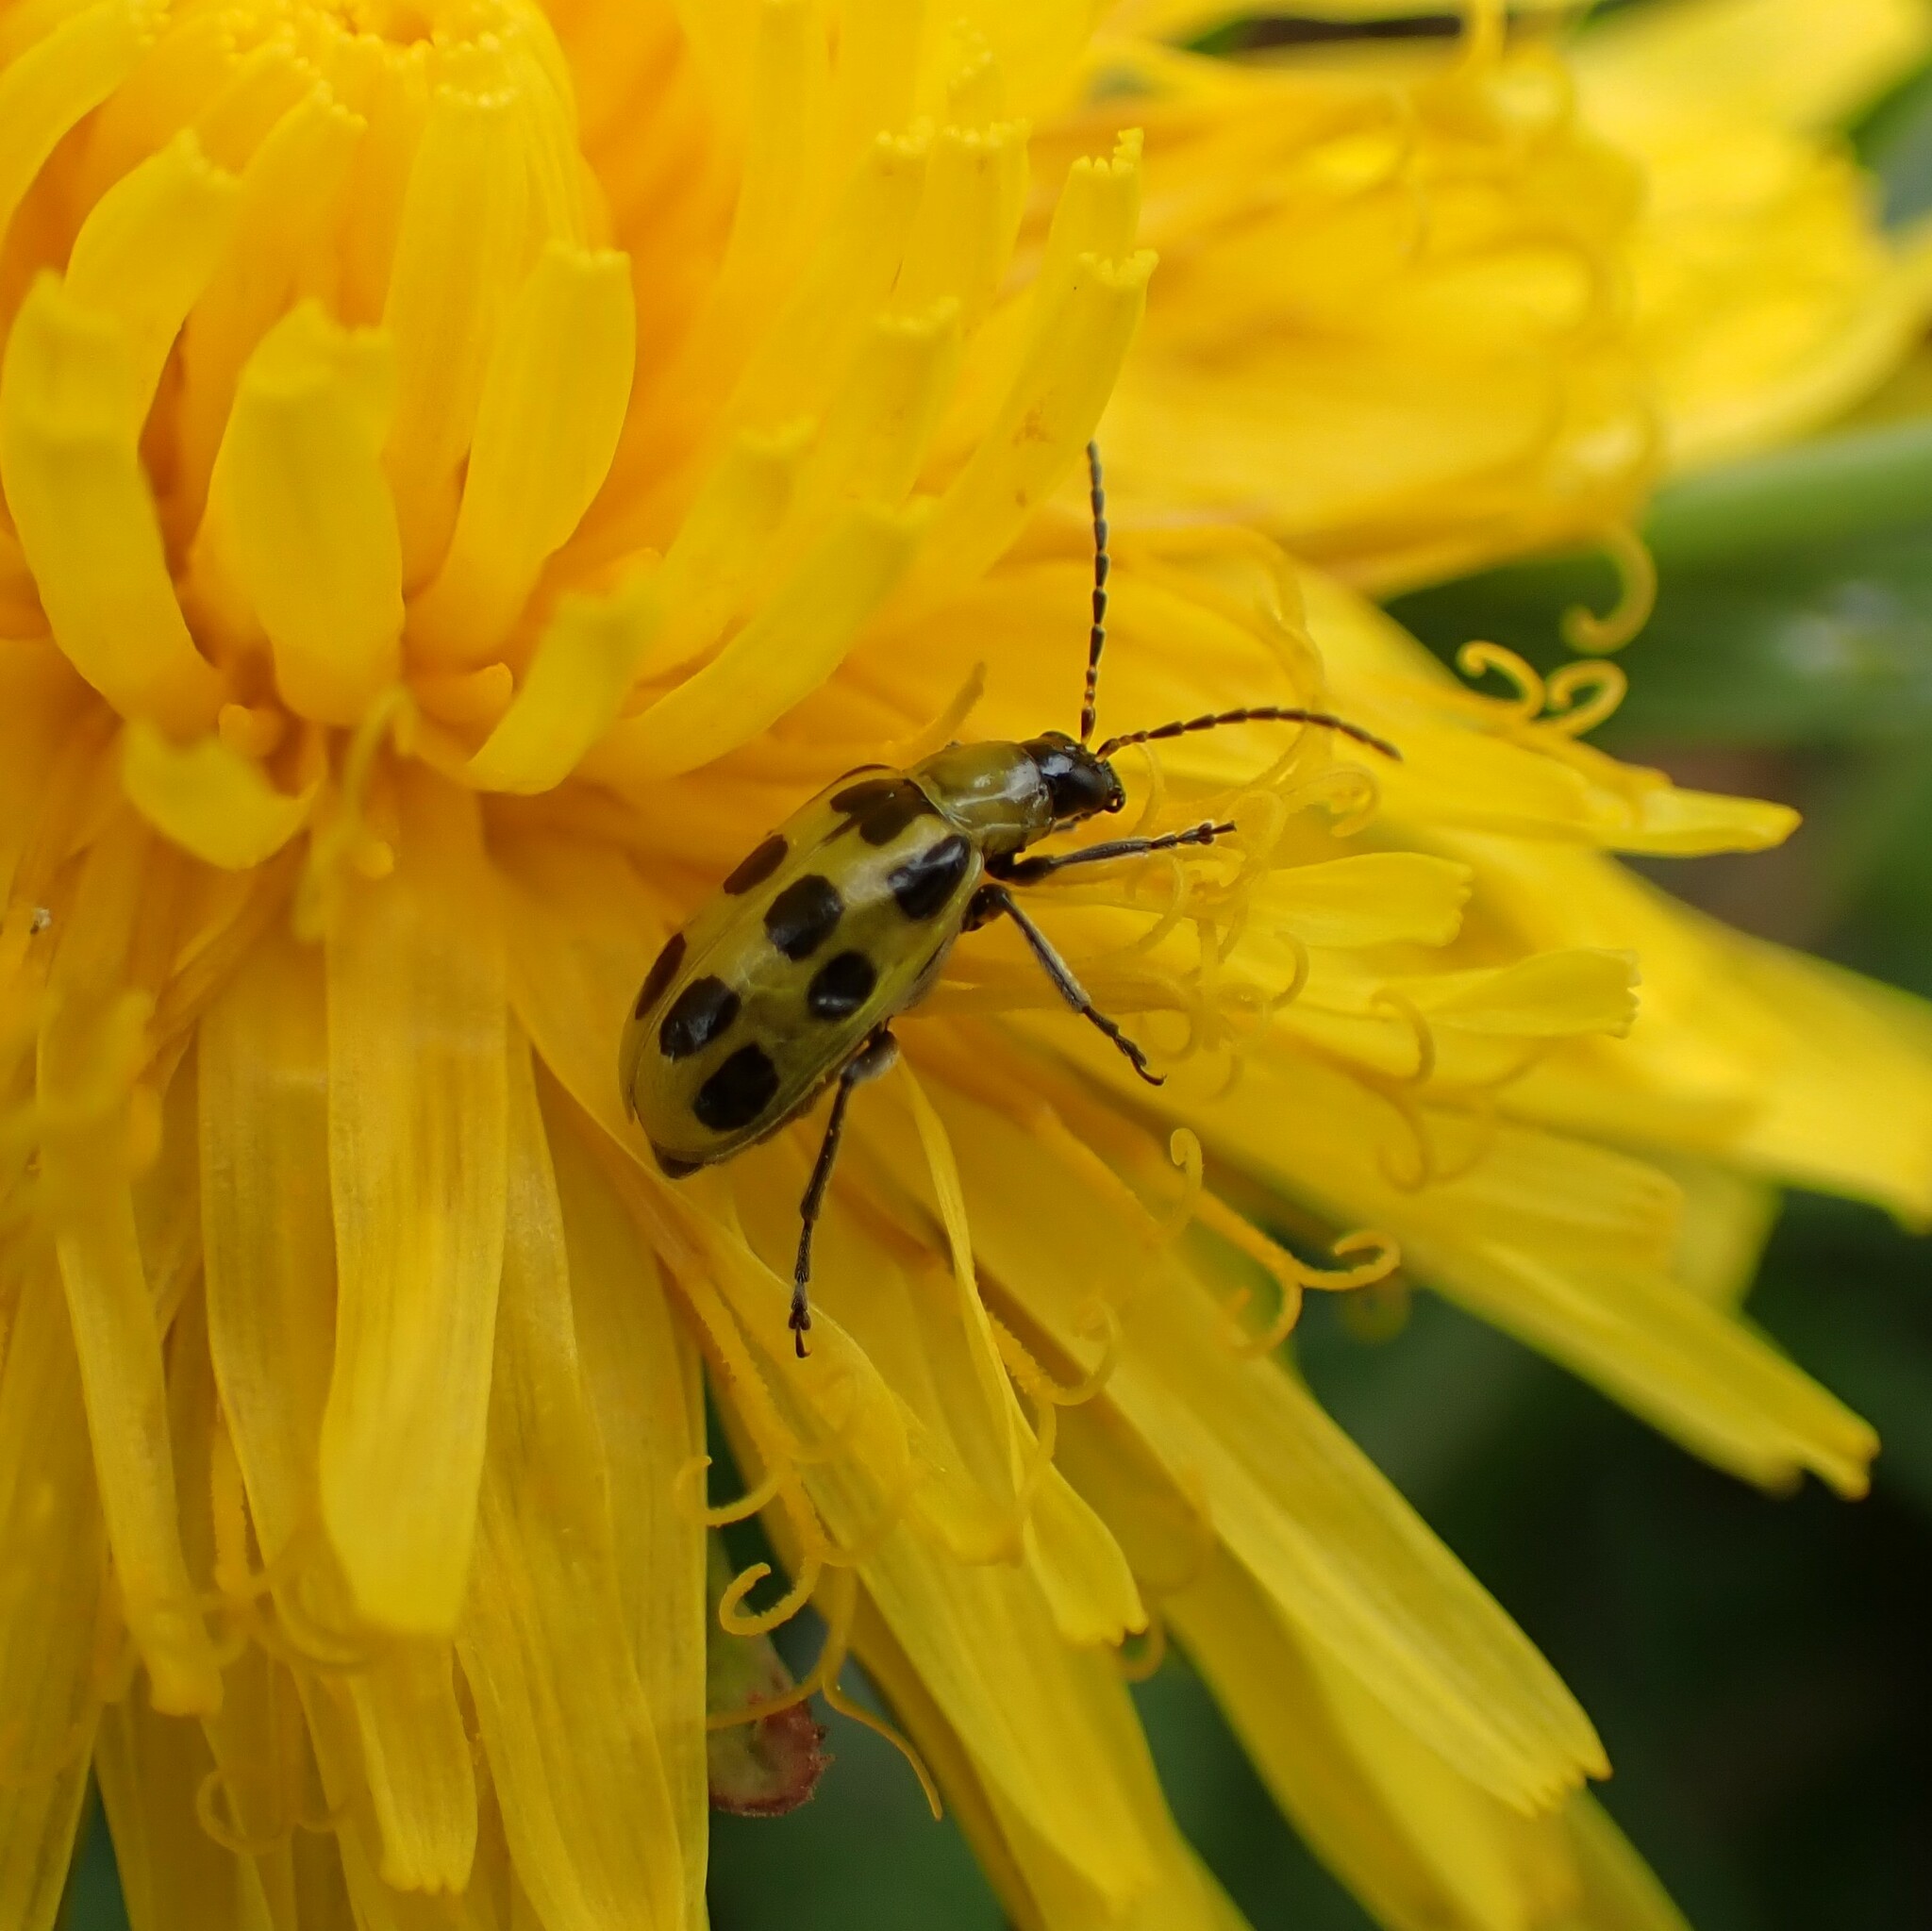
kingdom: Animalia
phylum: Arthropoda
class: Insecta
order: Coleoptera
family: Chrysomelidae
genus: Diabrotica
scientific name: Diabrotica undecimpunctata
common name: Spotted cucumber beetle
